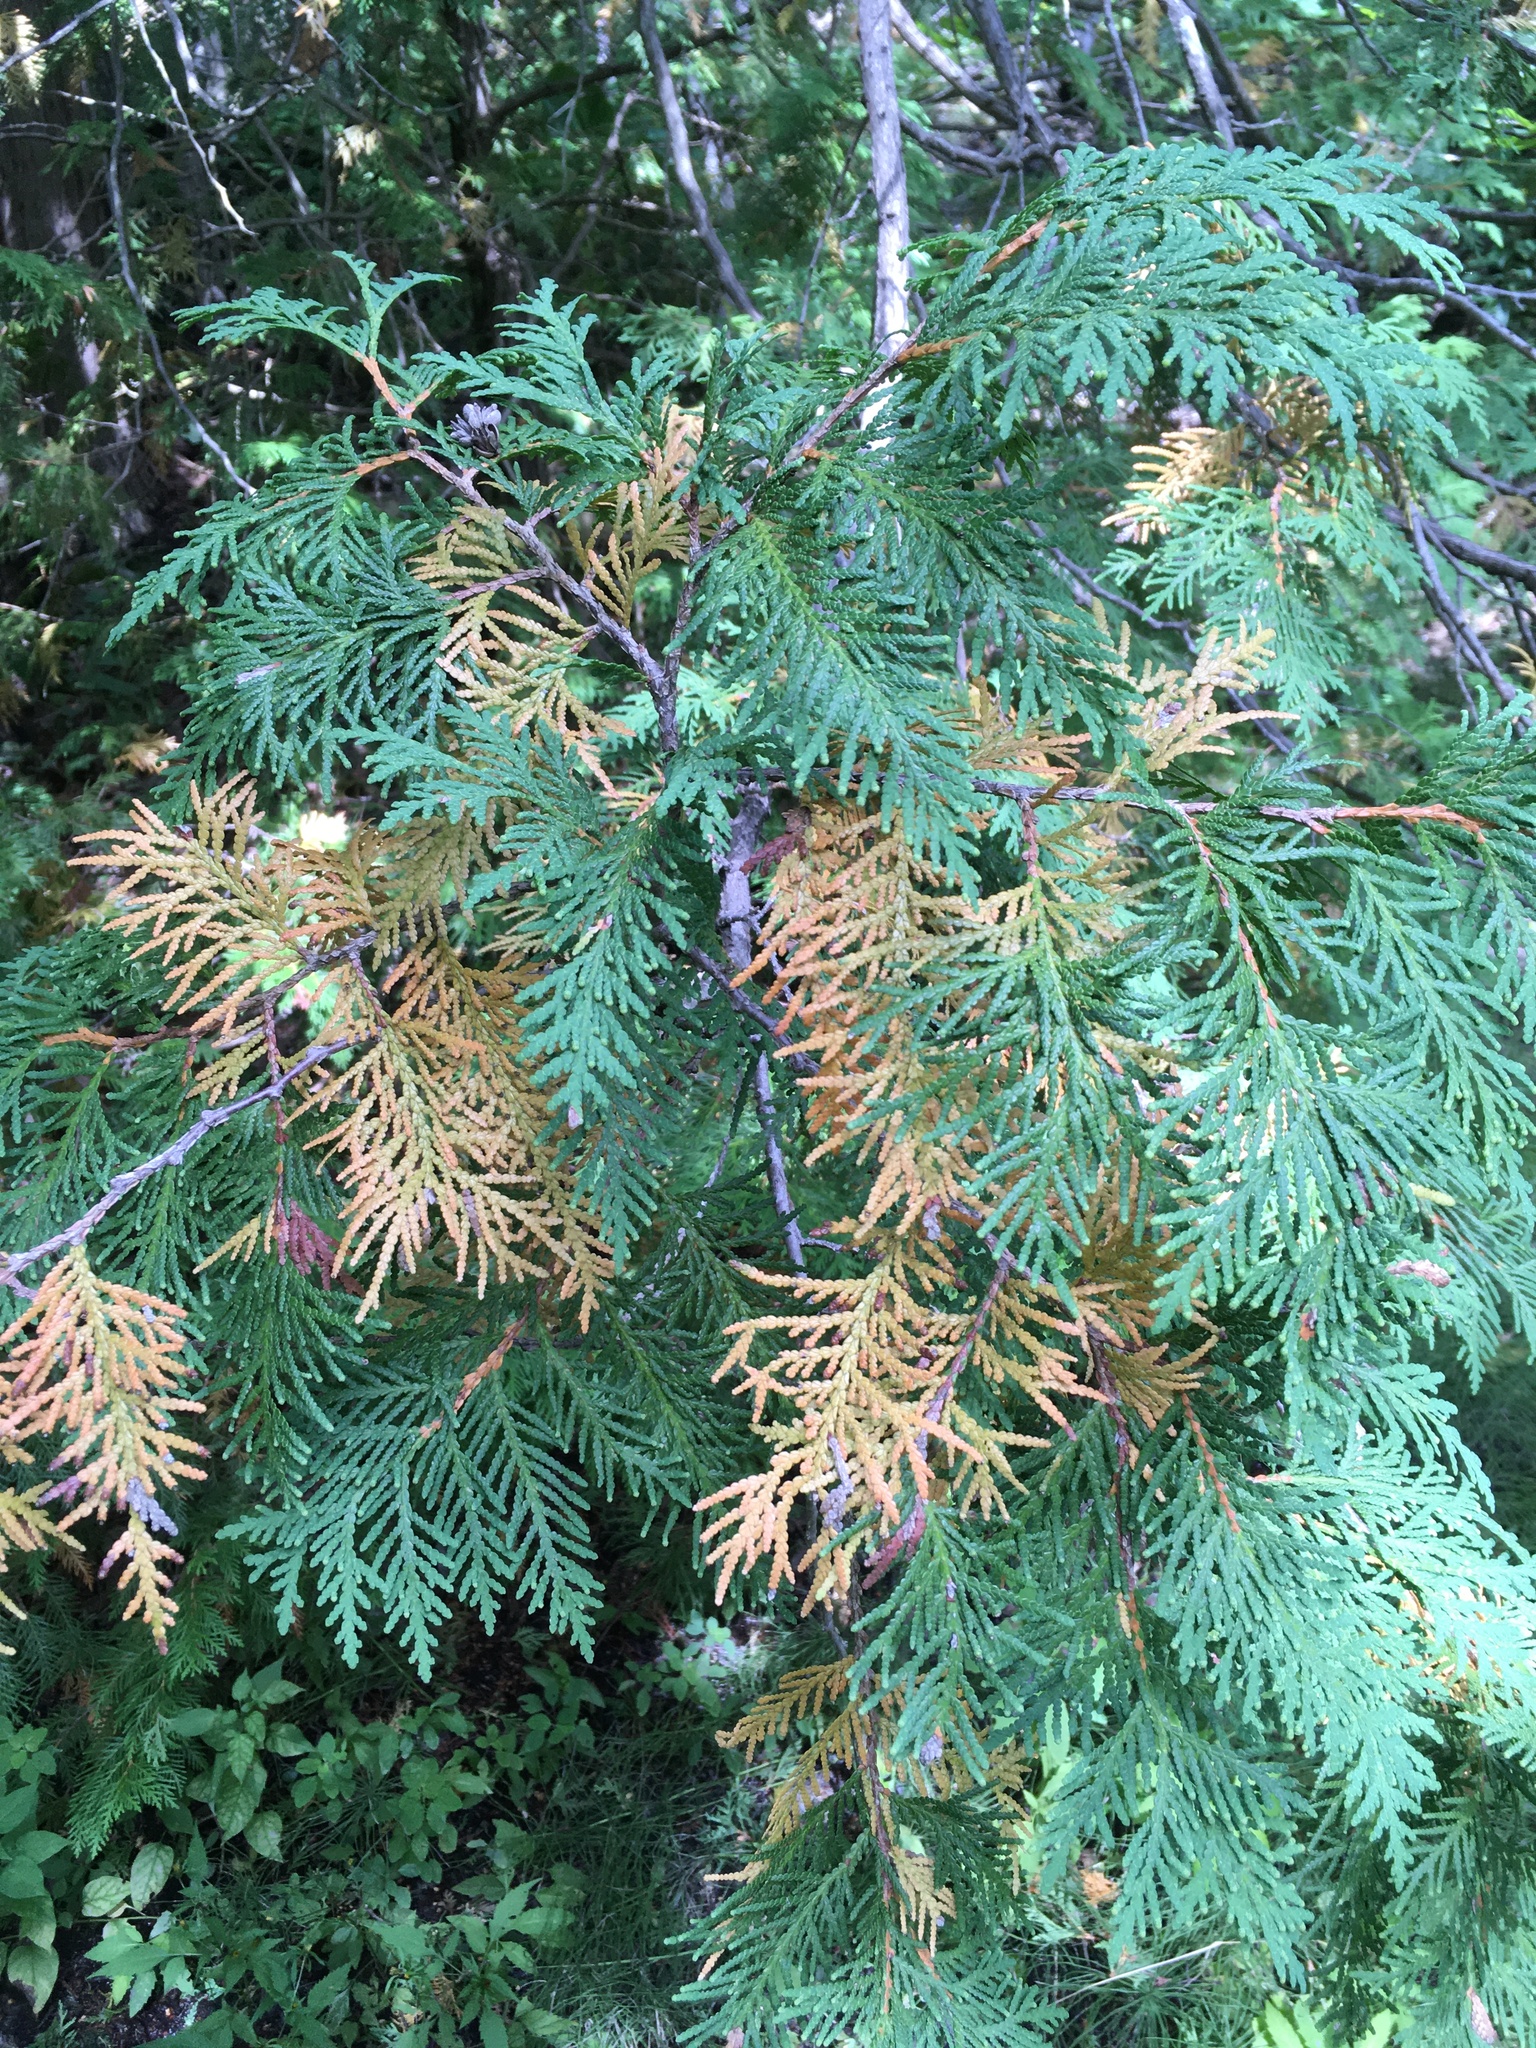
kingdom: Plantae
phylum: Tracheophyta
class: Pinopsida
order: Pinales
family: Cupressaceae
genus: Thuja
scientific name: Thuja occidentalis
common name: Northern white-cedar
